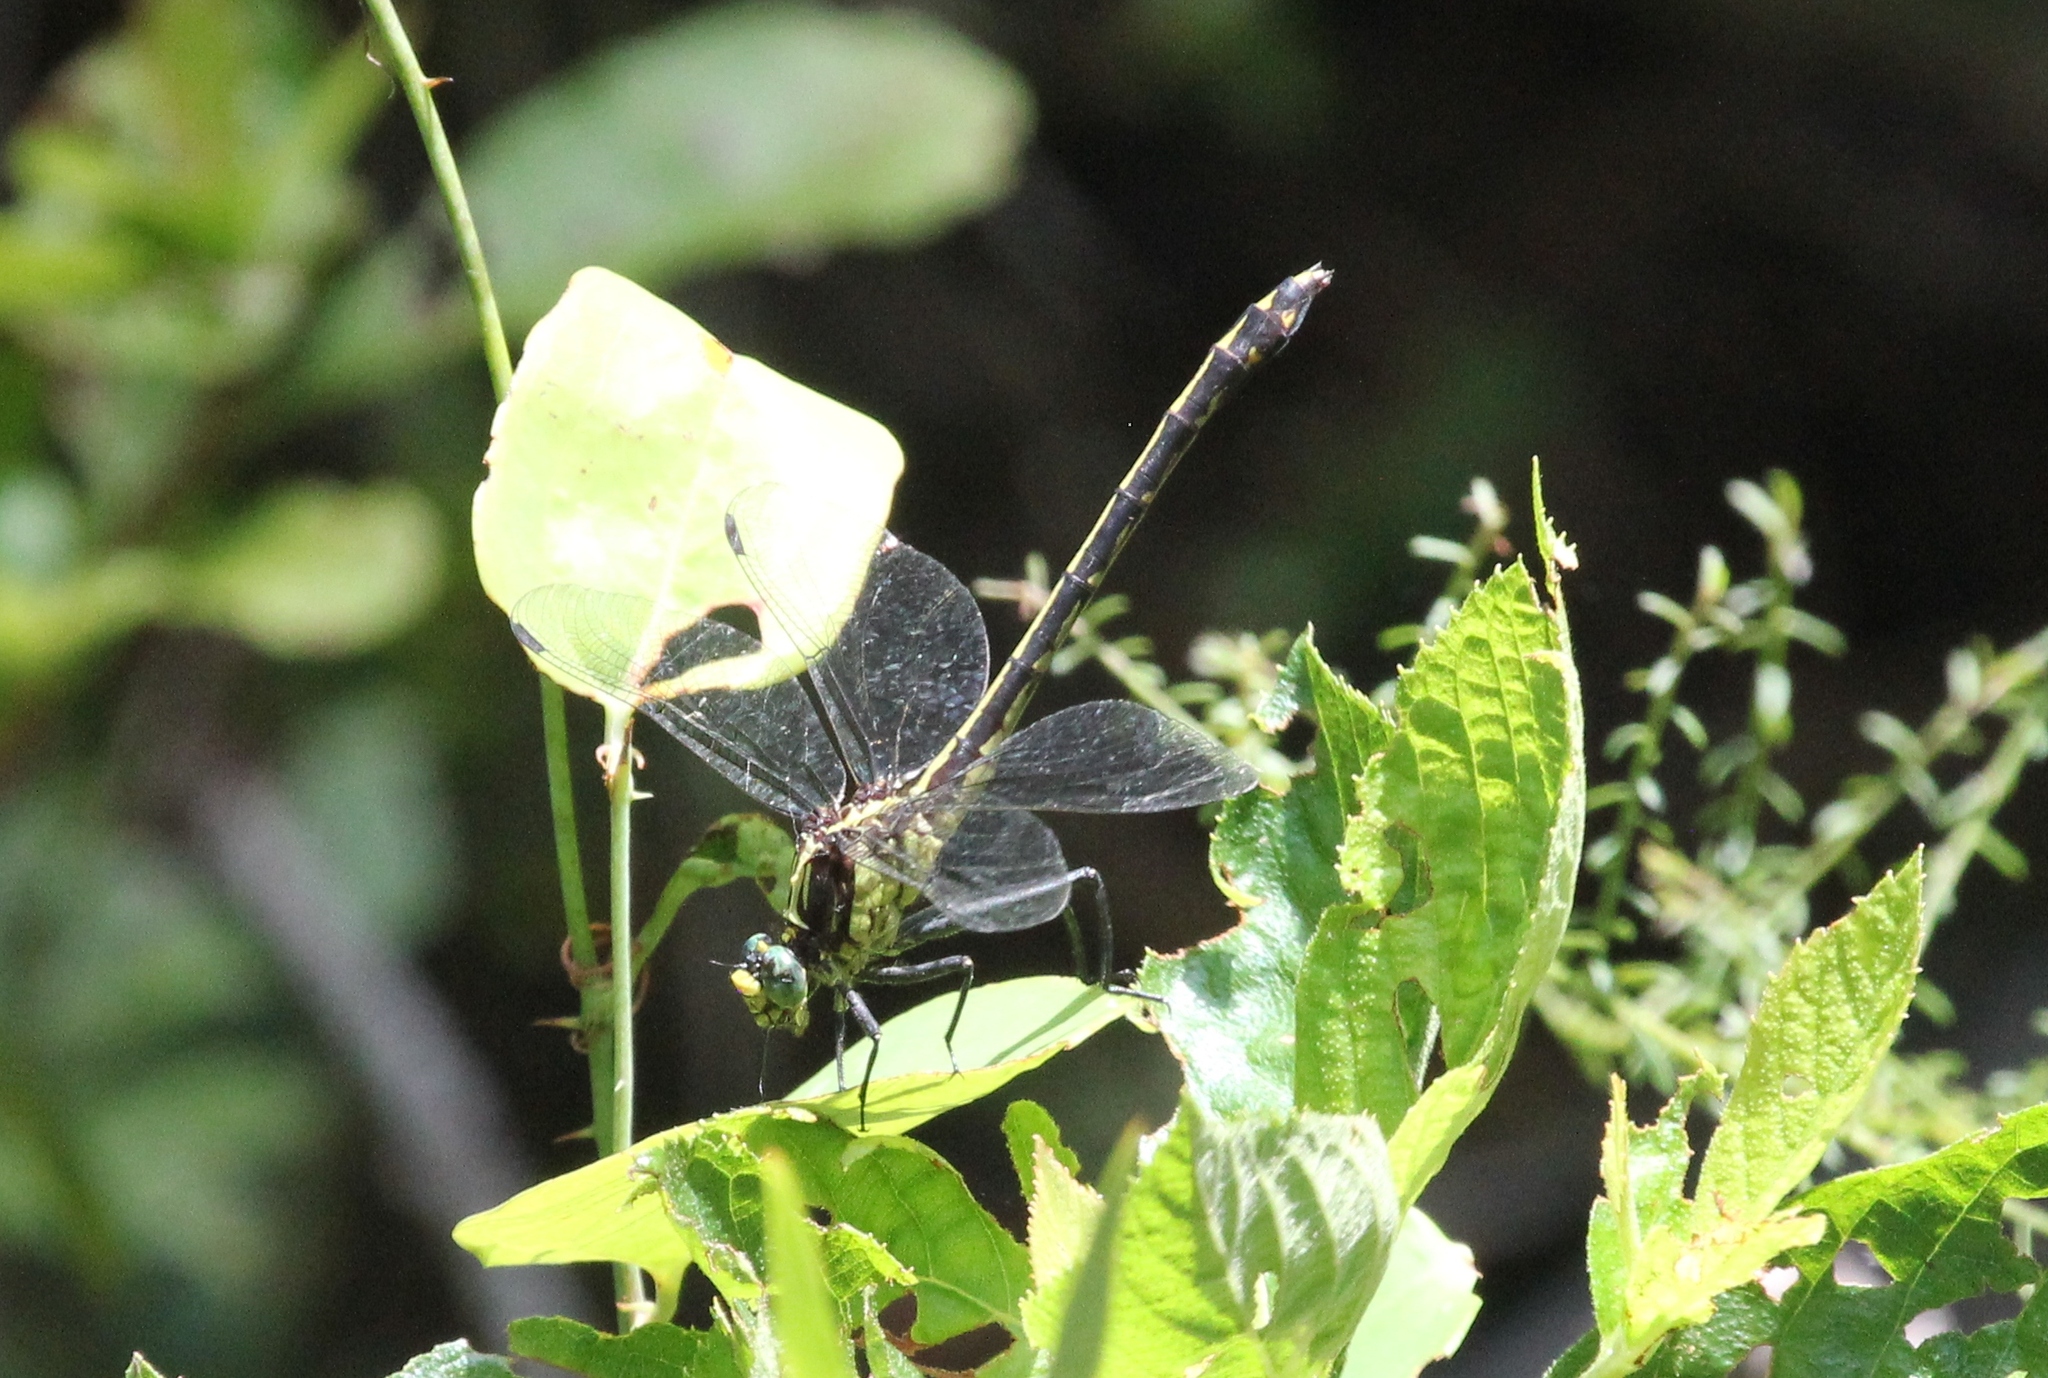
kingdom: Animalia
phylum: Arthropoda
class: Insecta
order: Odonata
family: Gomphidae
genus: Dromogomphus
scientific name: Dromogomphus spinosus
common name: Black-shouldered spinyleg
